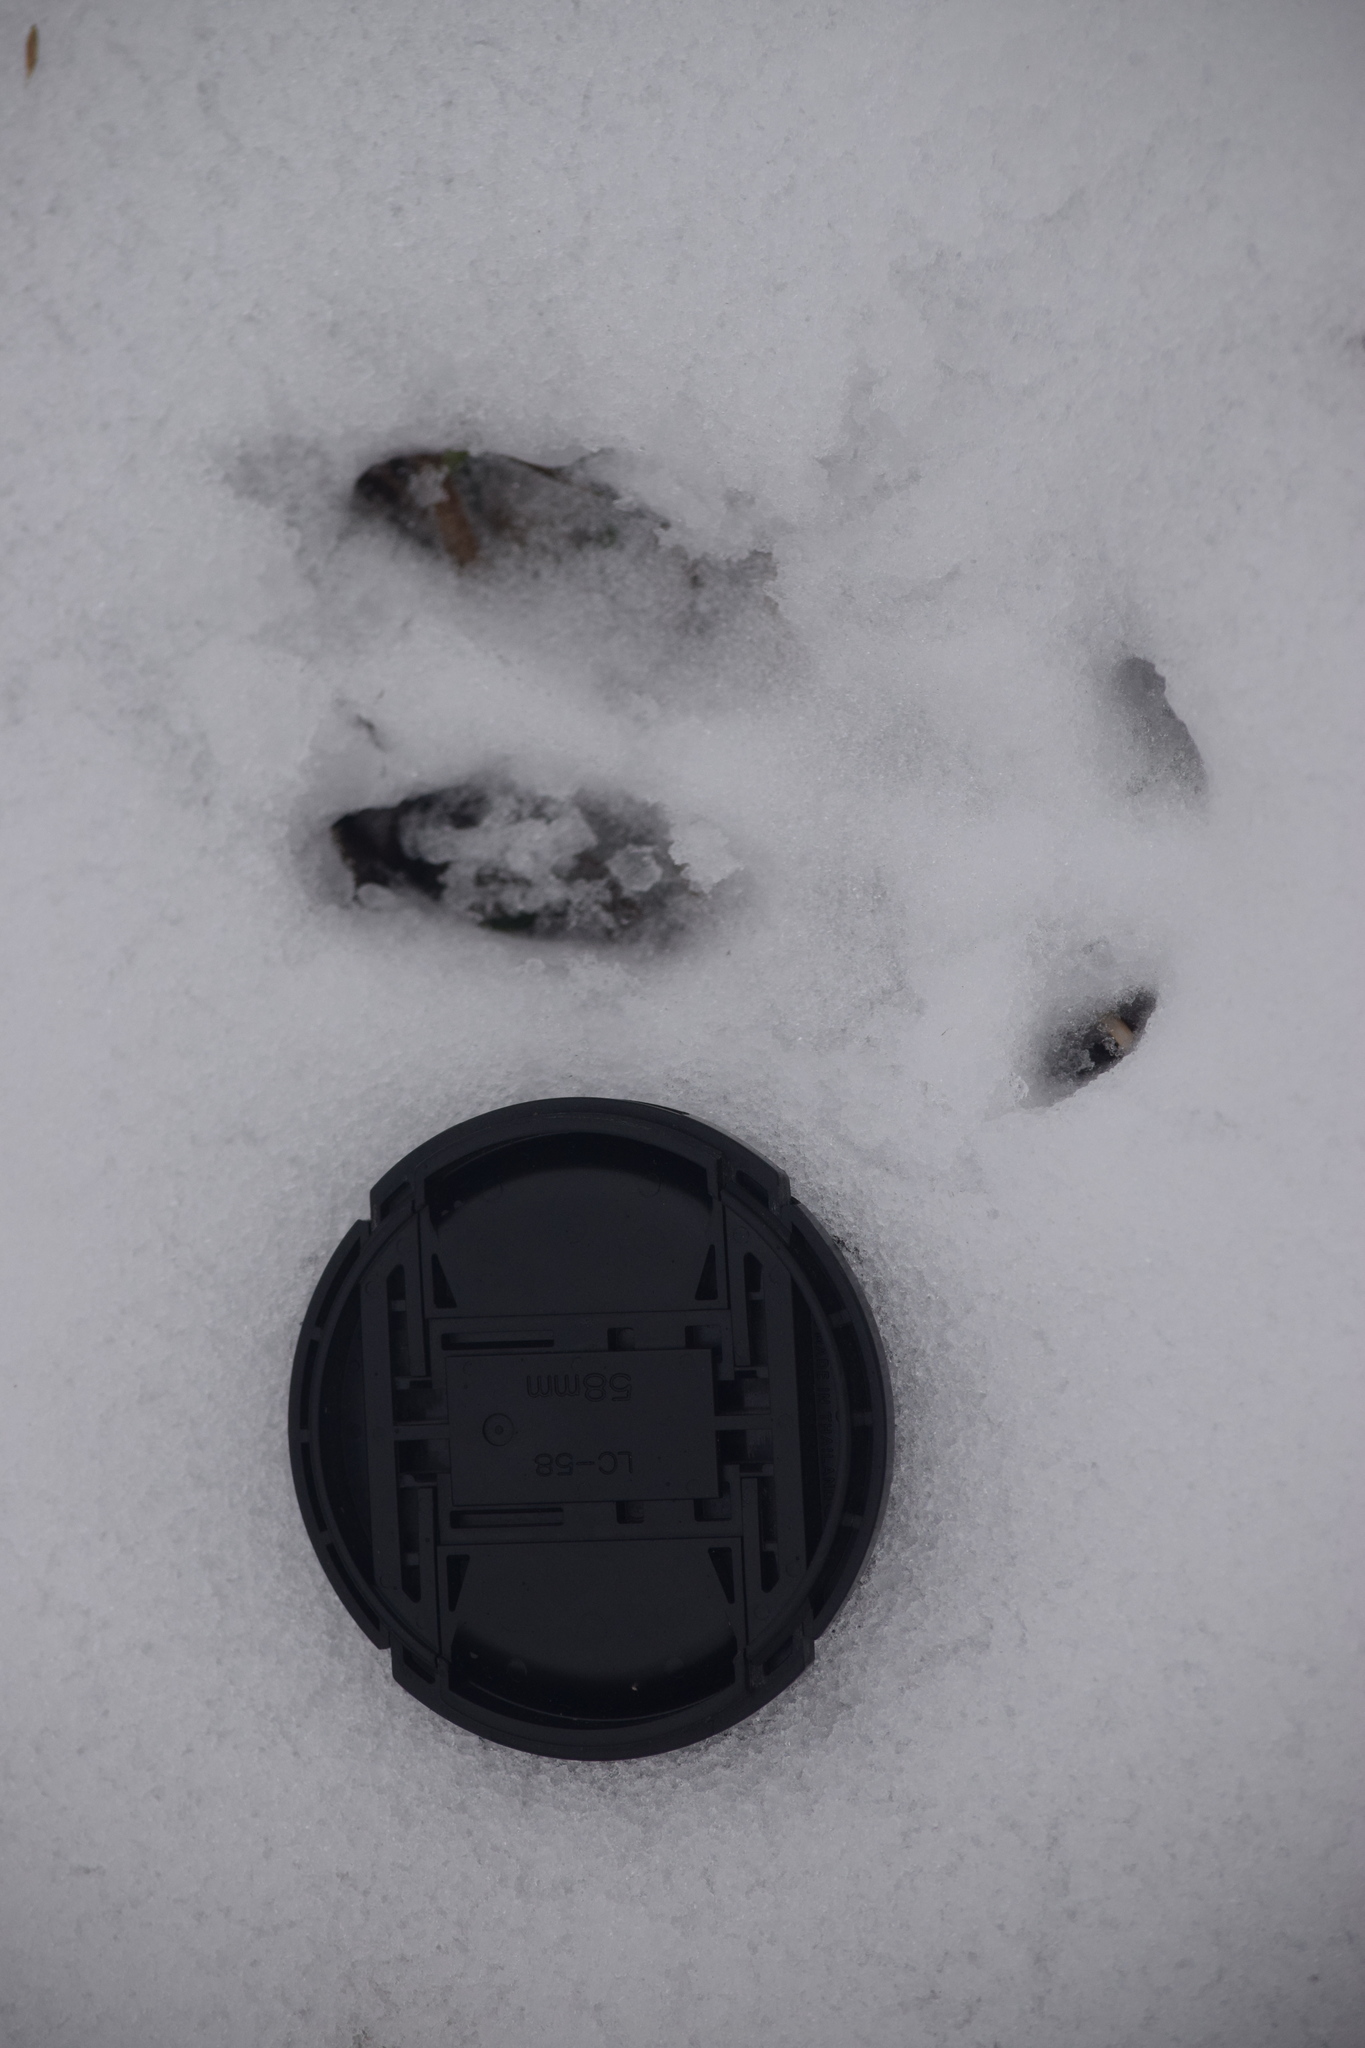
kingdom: Animalia
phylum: Chordata
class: Mammalia
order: Artiodactyla
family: Cervidae
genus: Capreolus
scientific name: Capreolus capreolus
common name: Western roe deer
